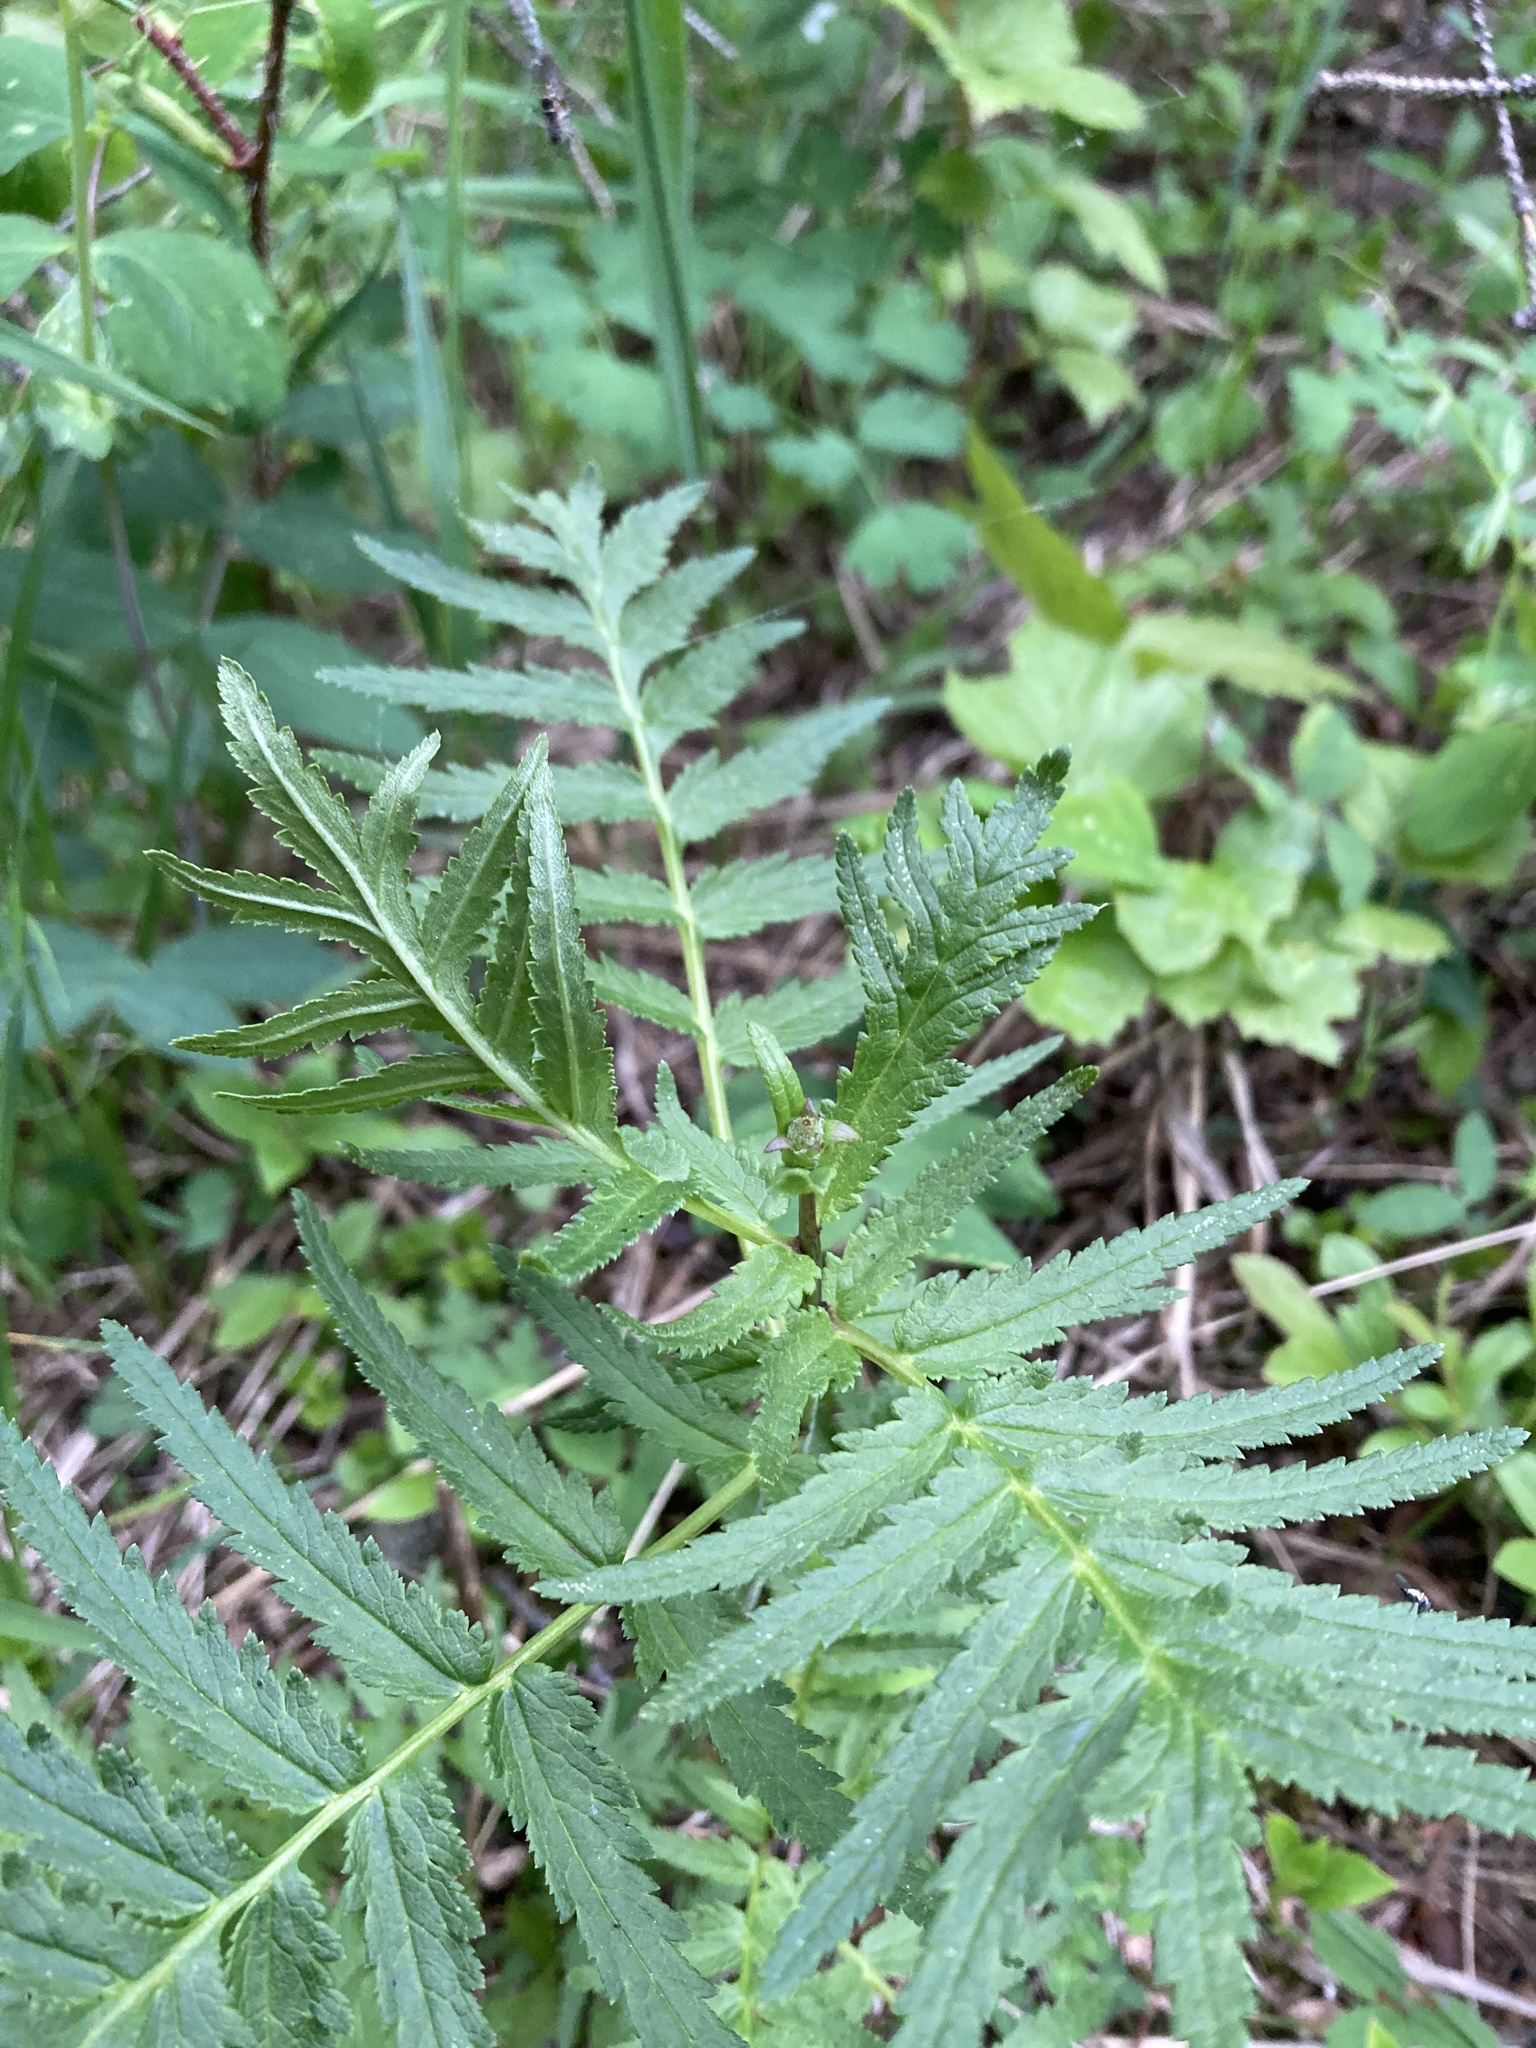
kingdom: Plantae
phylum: Tracheophyta
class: Magnoliopsida
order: Asterales
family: Asteraceae
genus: Tanacetum
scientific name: Tanacetum vulgare
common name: Common tansy
